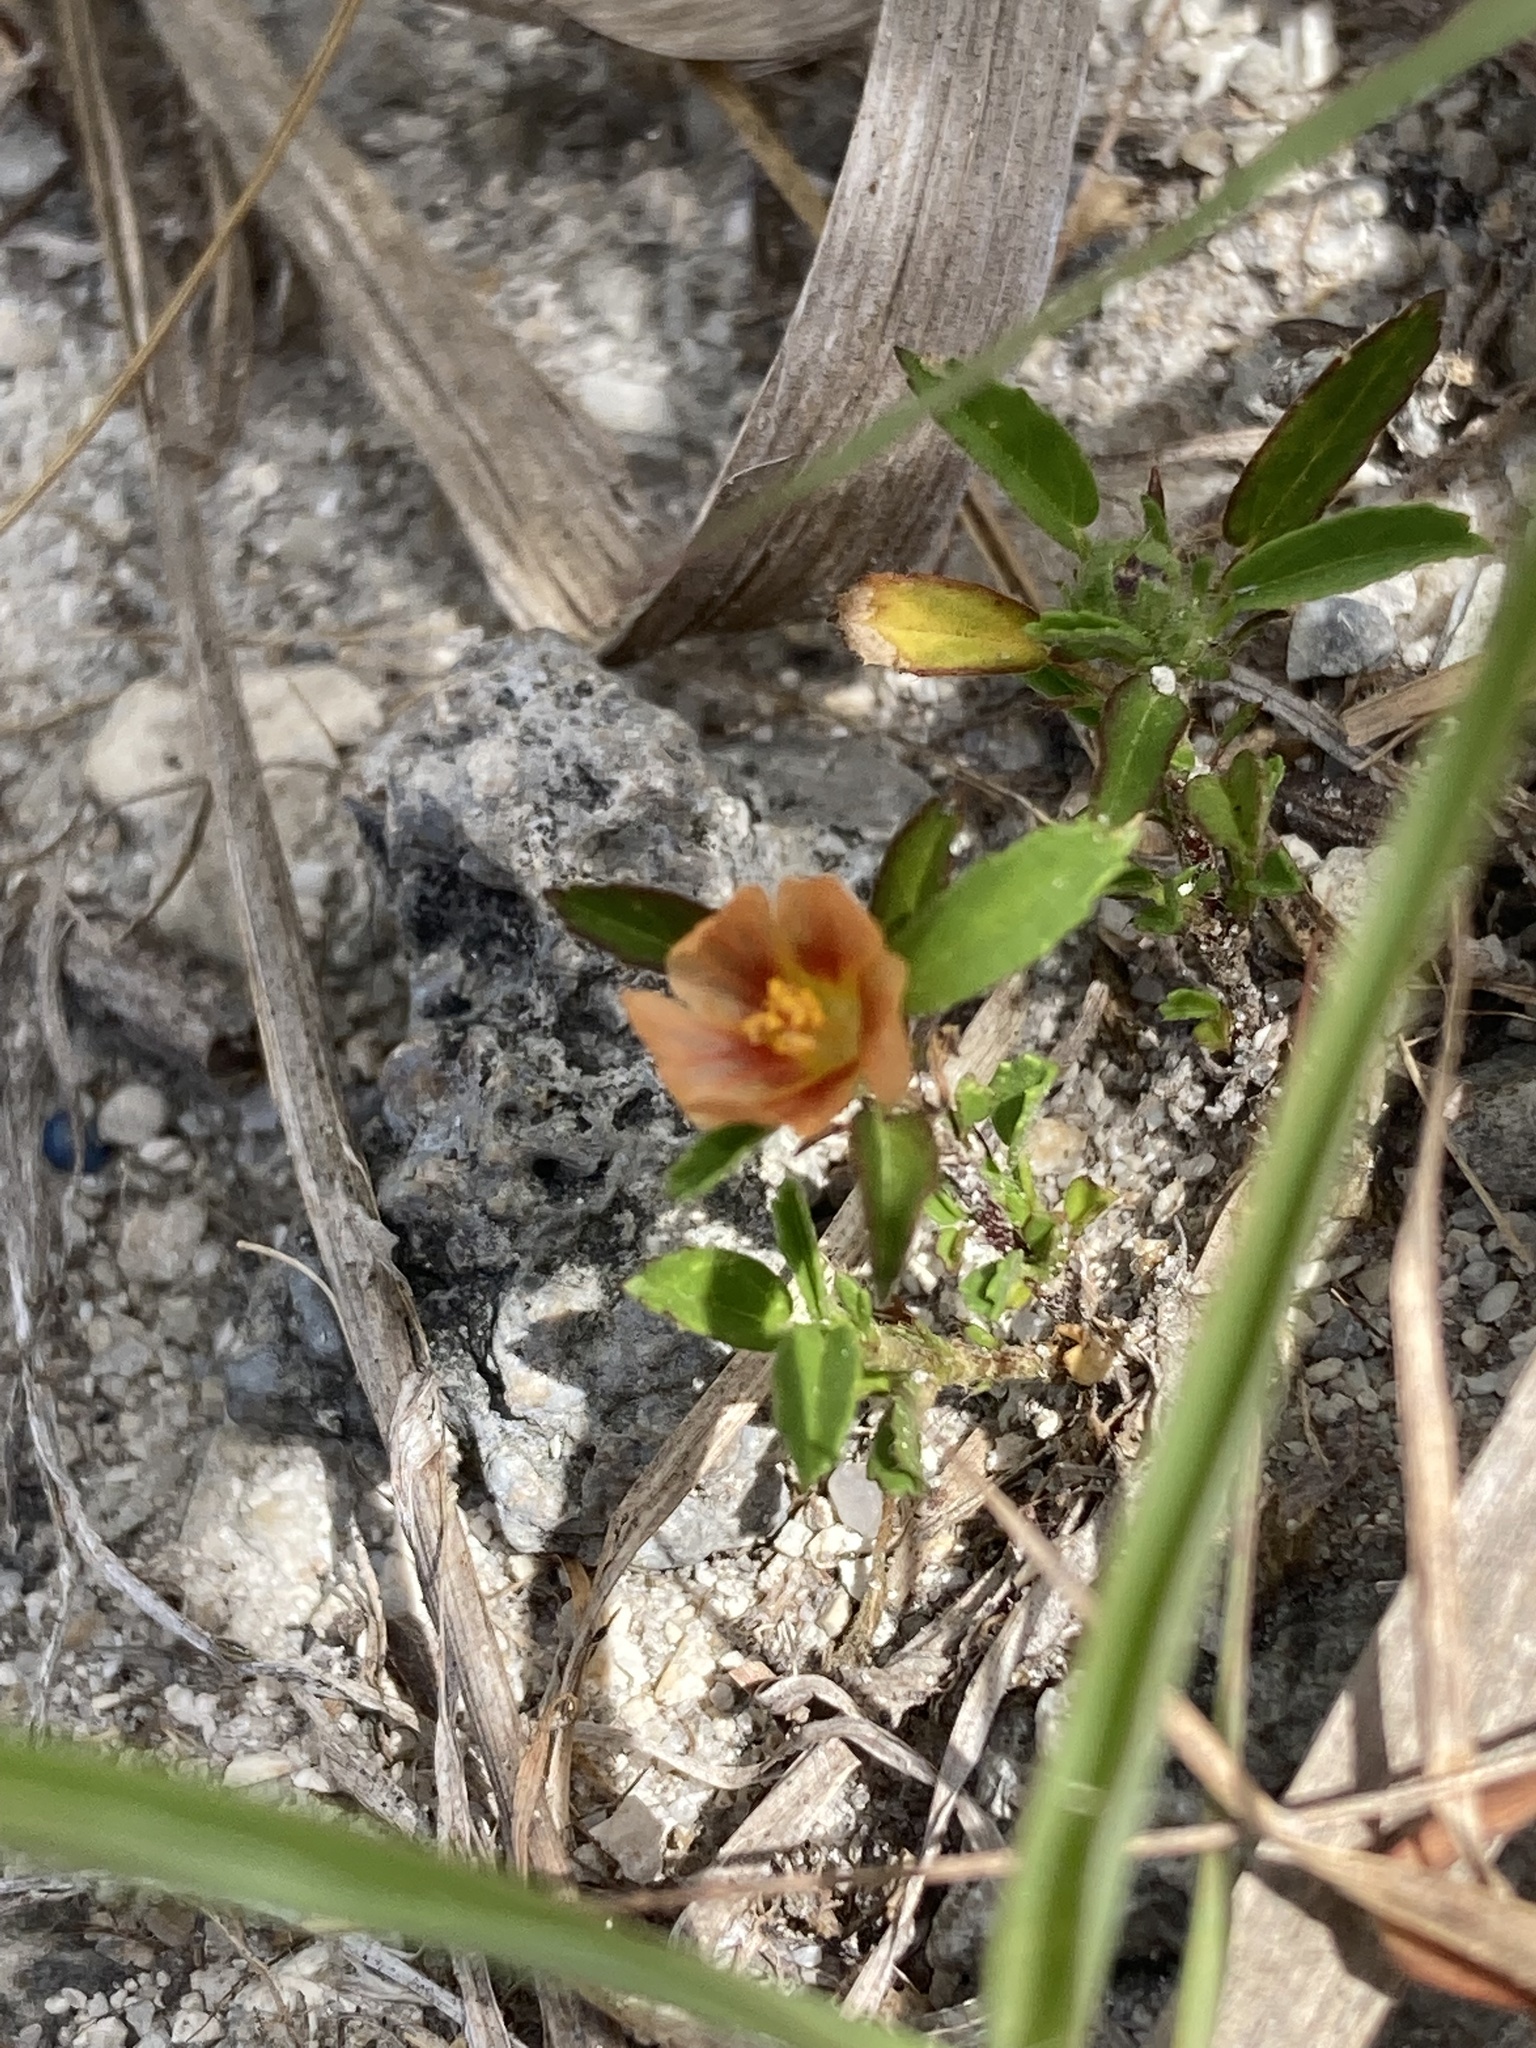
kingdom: Plantae
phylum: Tracheophyta
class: Magnoliopsida
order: Malvales
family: Malvaceae
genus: Sida
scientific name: Sida ciliaris
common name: Bracted fanpetals
